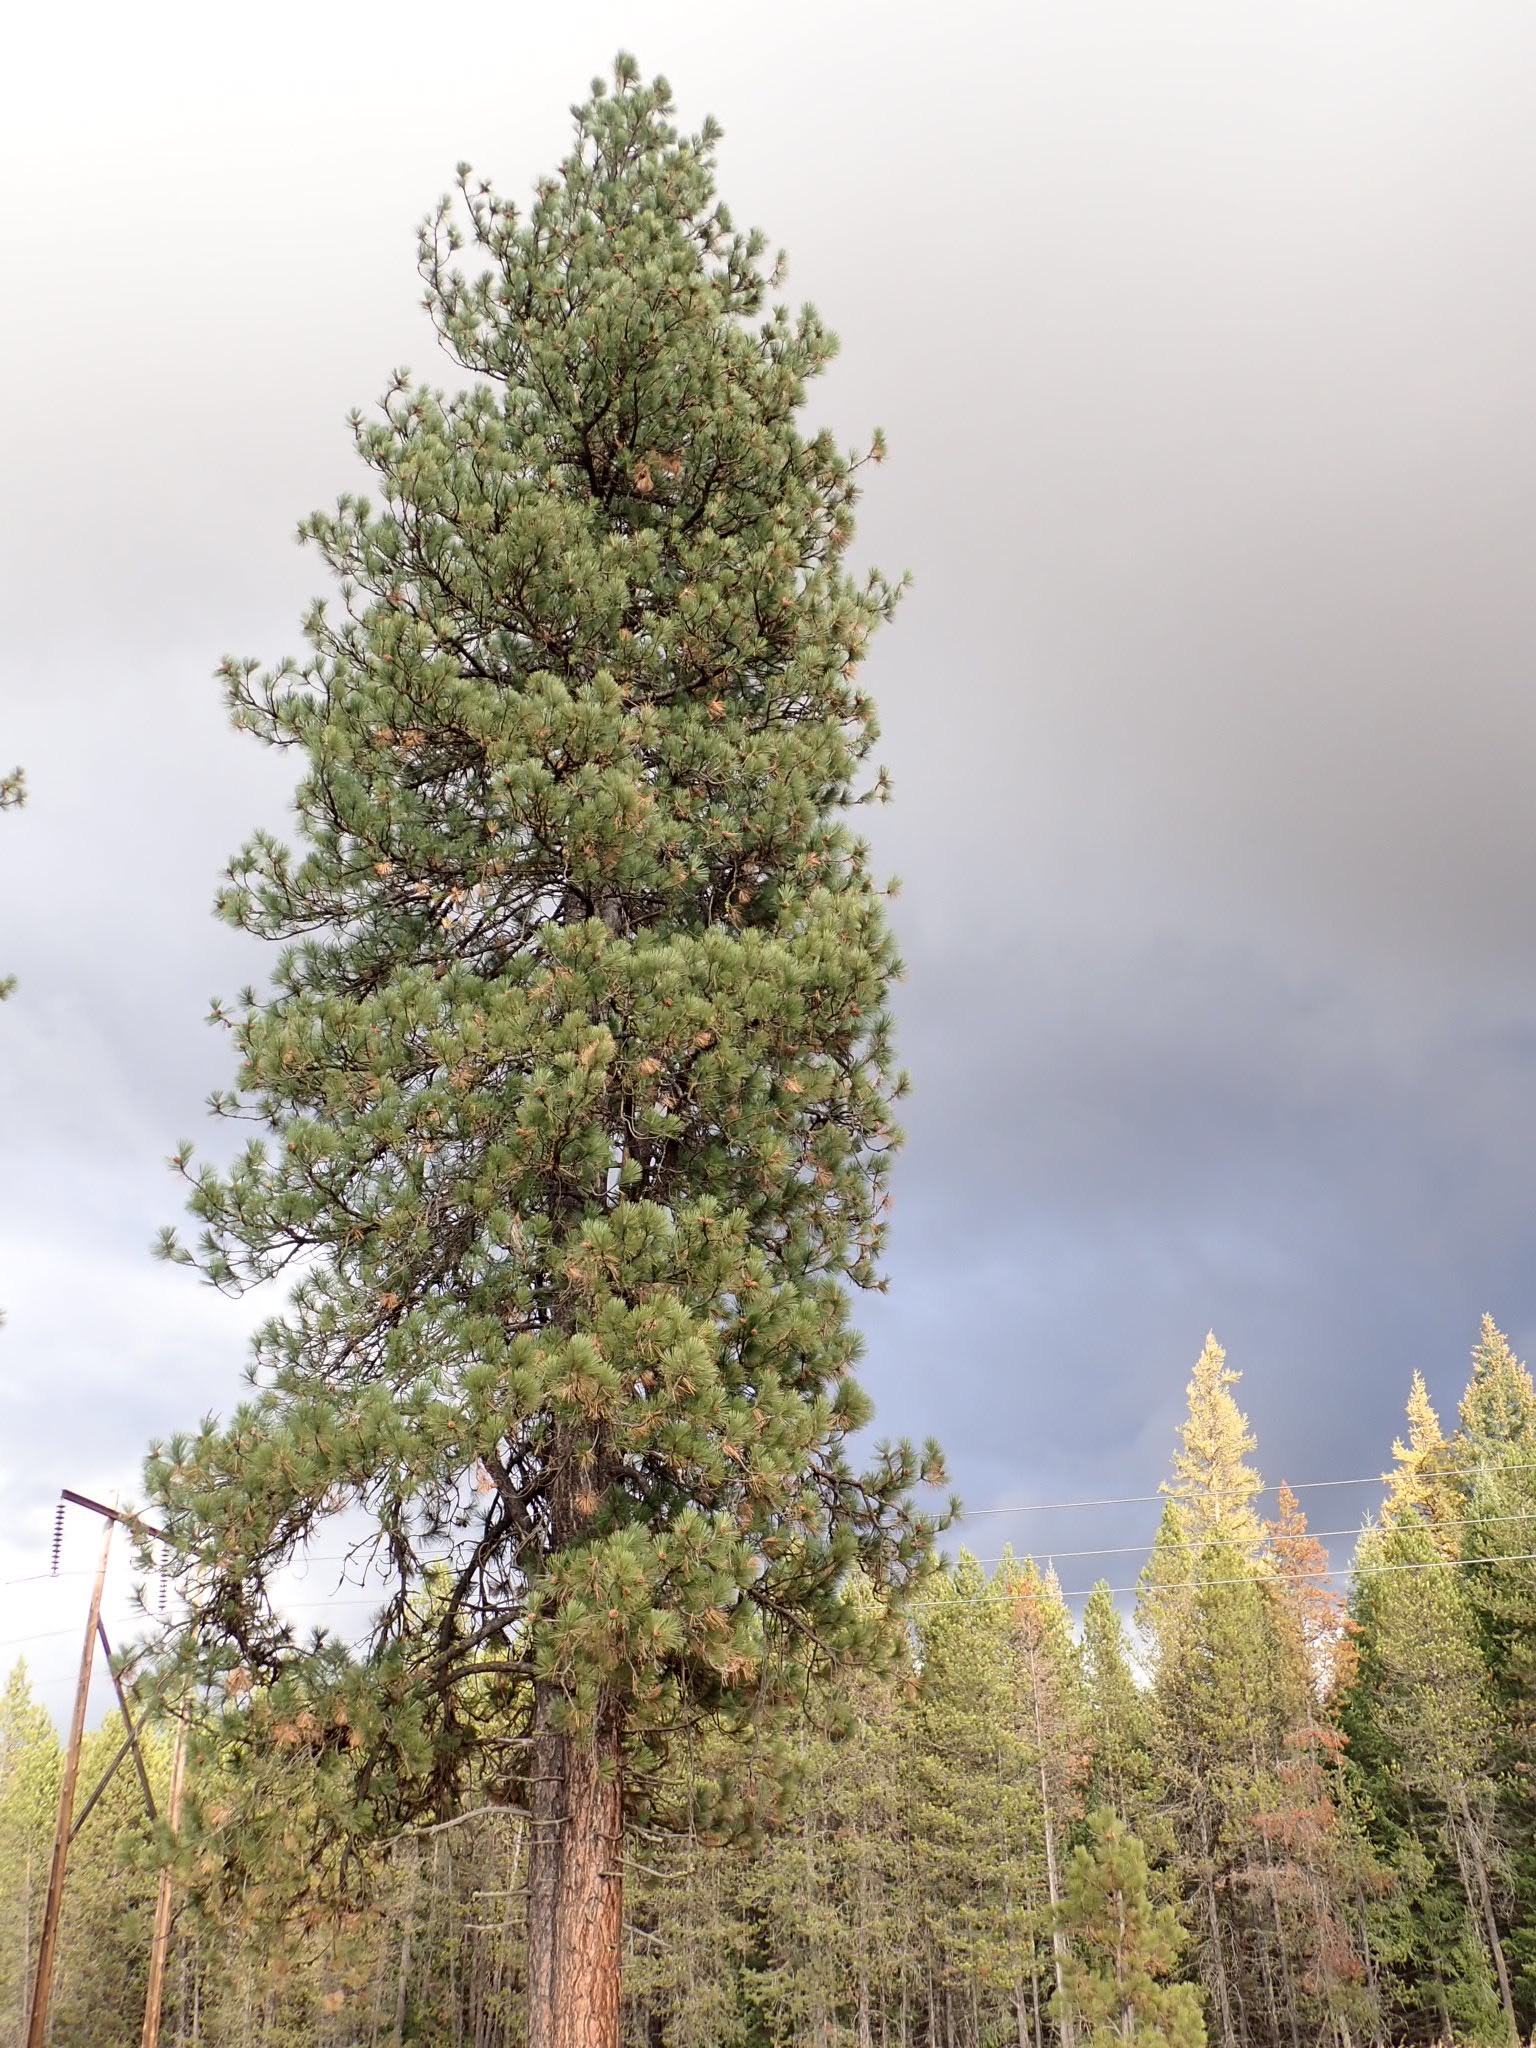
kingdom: Plantae
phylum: Tracheophyta
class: Pinopsida
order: Pinales
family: Pinaceae
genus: Pinus
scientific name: Pinus ponderosa
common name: Western yellow-pine
